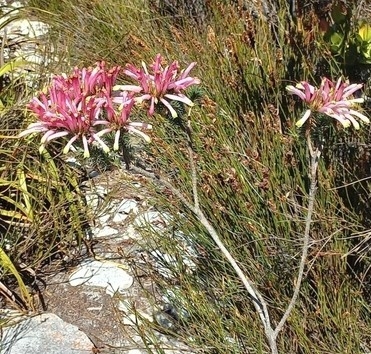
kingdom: Plantae
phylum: Tracheophyta
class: Magnoliopsida
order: Ericales
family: Ericaceae
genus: Erica
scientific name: Erica fascicularis
